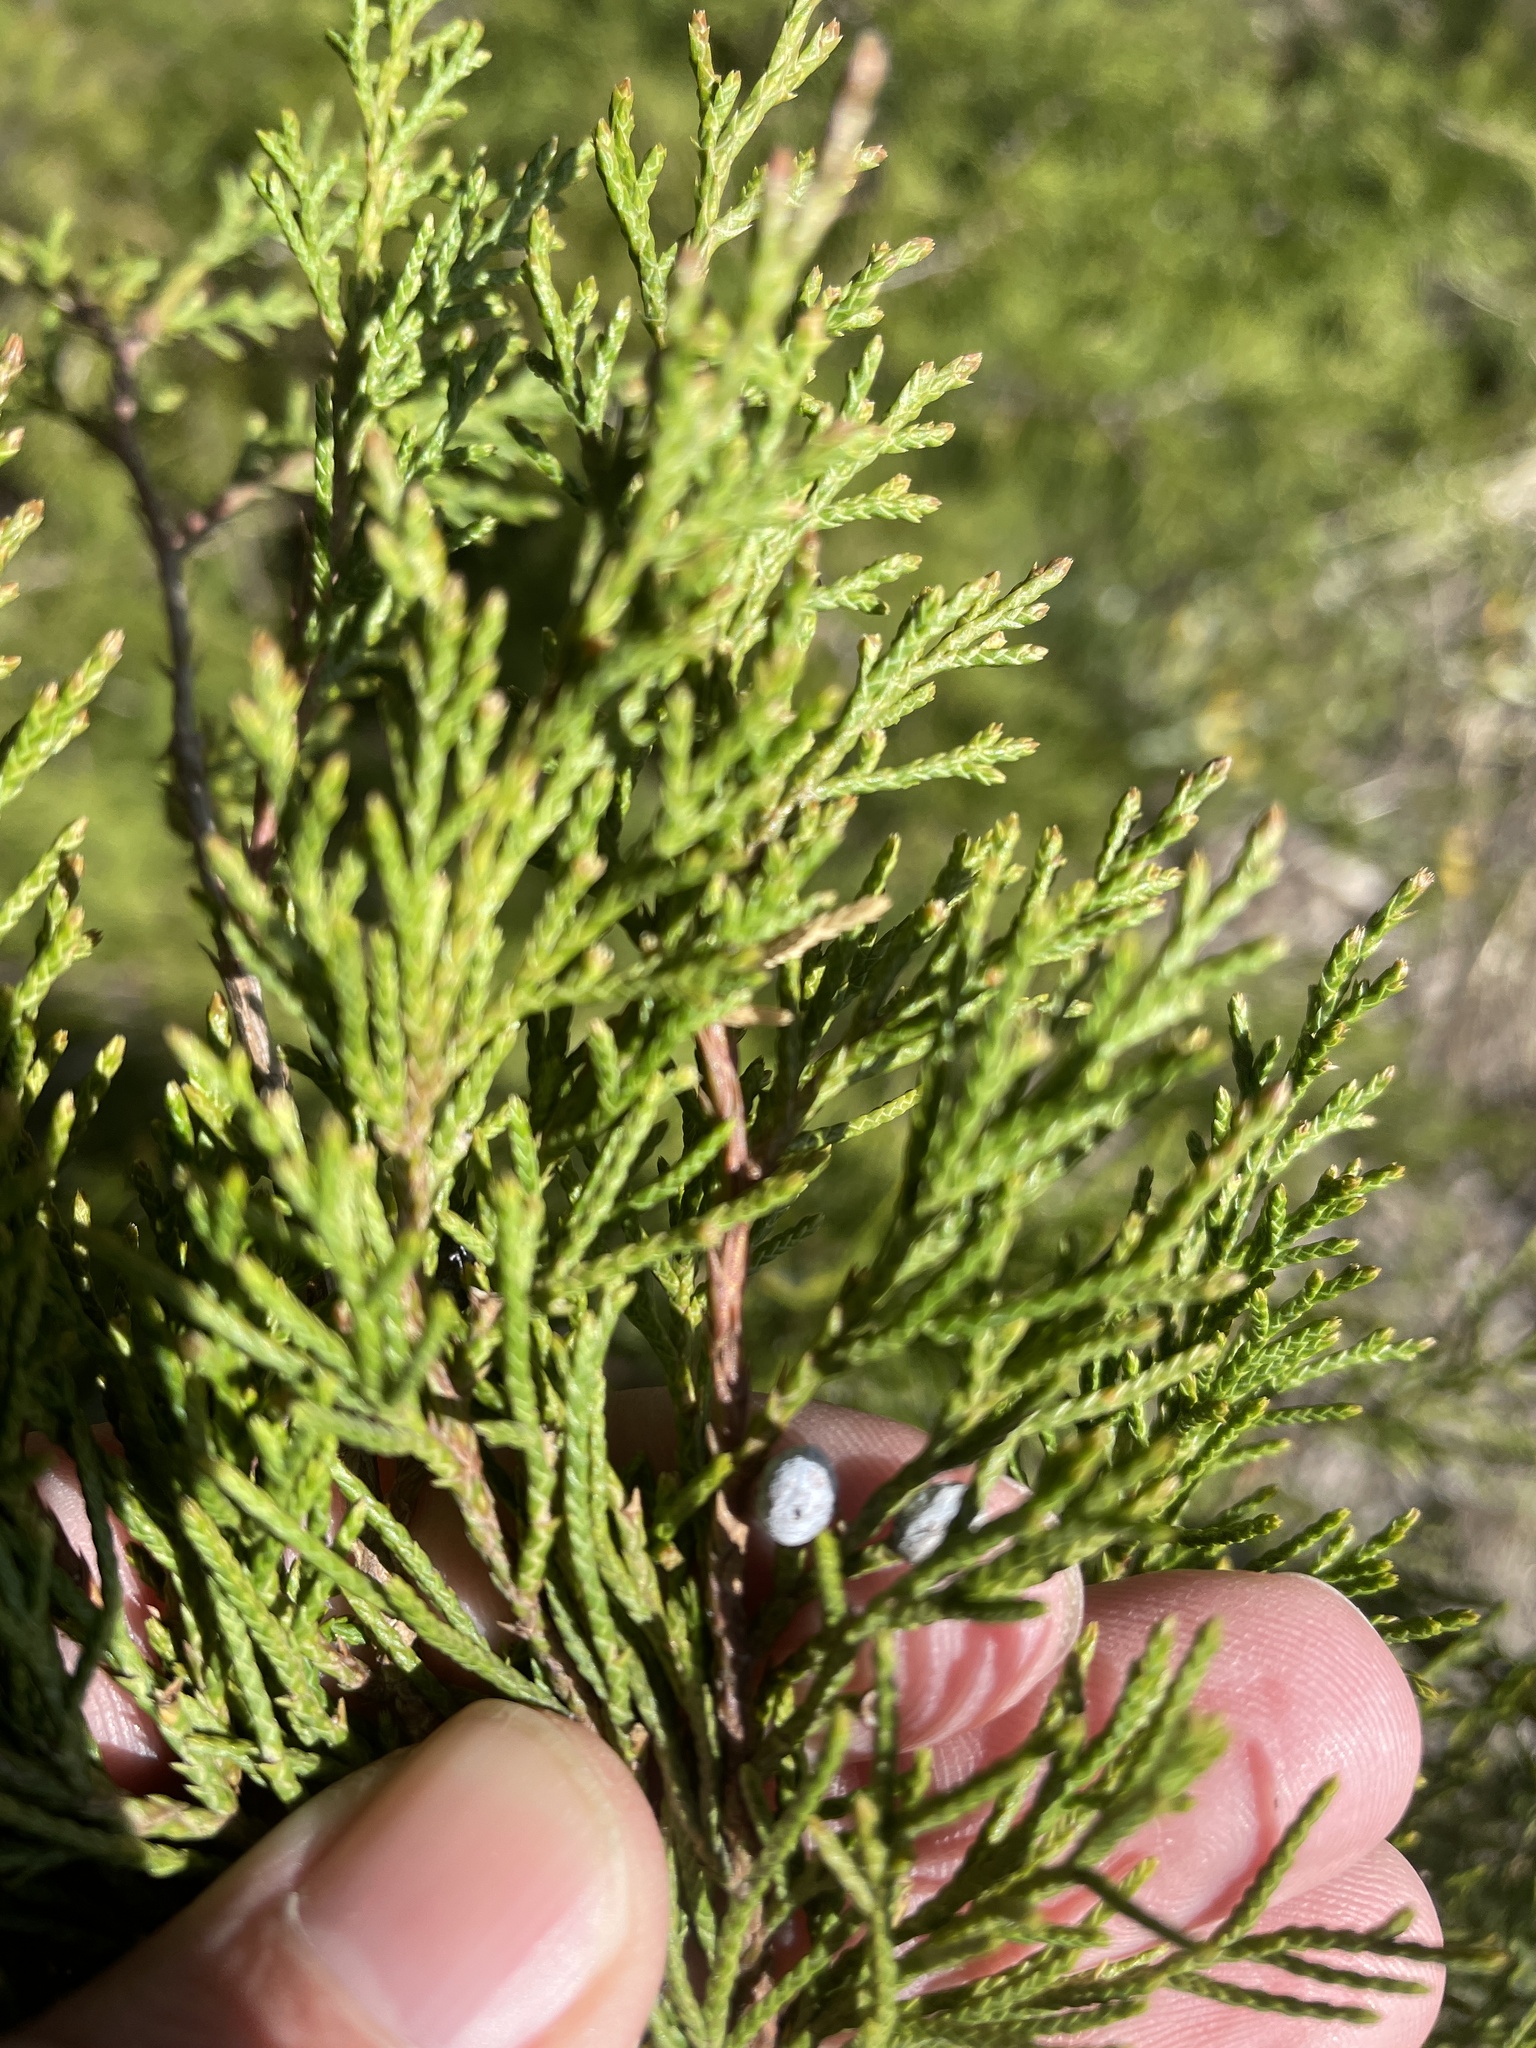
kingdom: Plantae
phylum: Tracheophyta
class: Pinopsida
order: Pinales
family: Cupressaceae
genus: Juniperus
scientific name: Juniperus virginiana
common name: Red juniper
